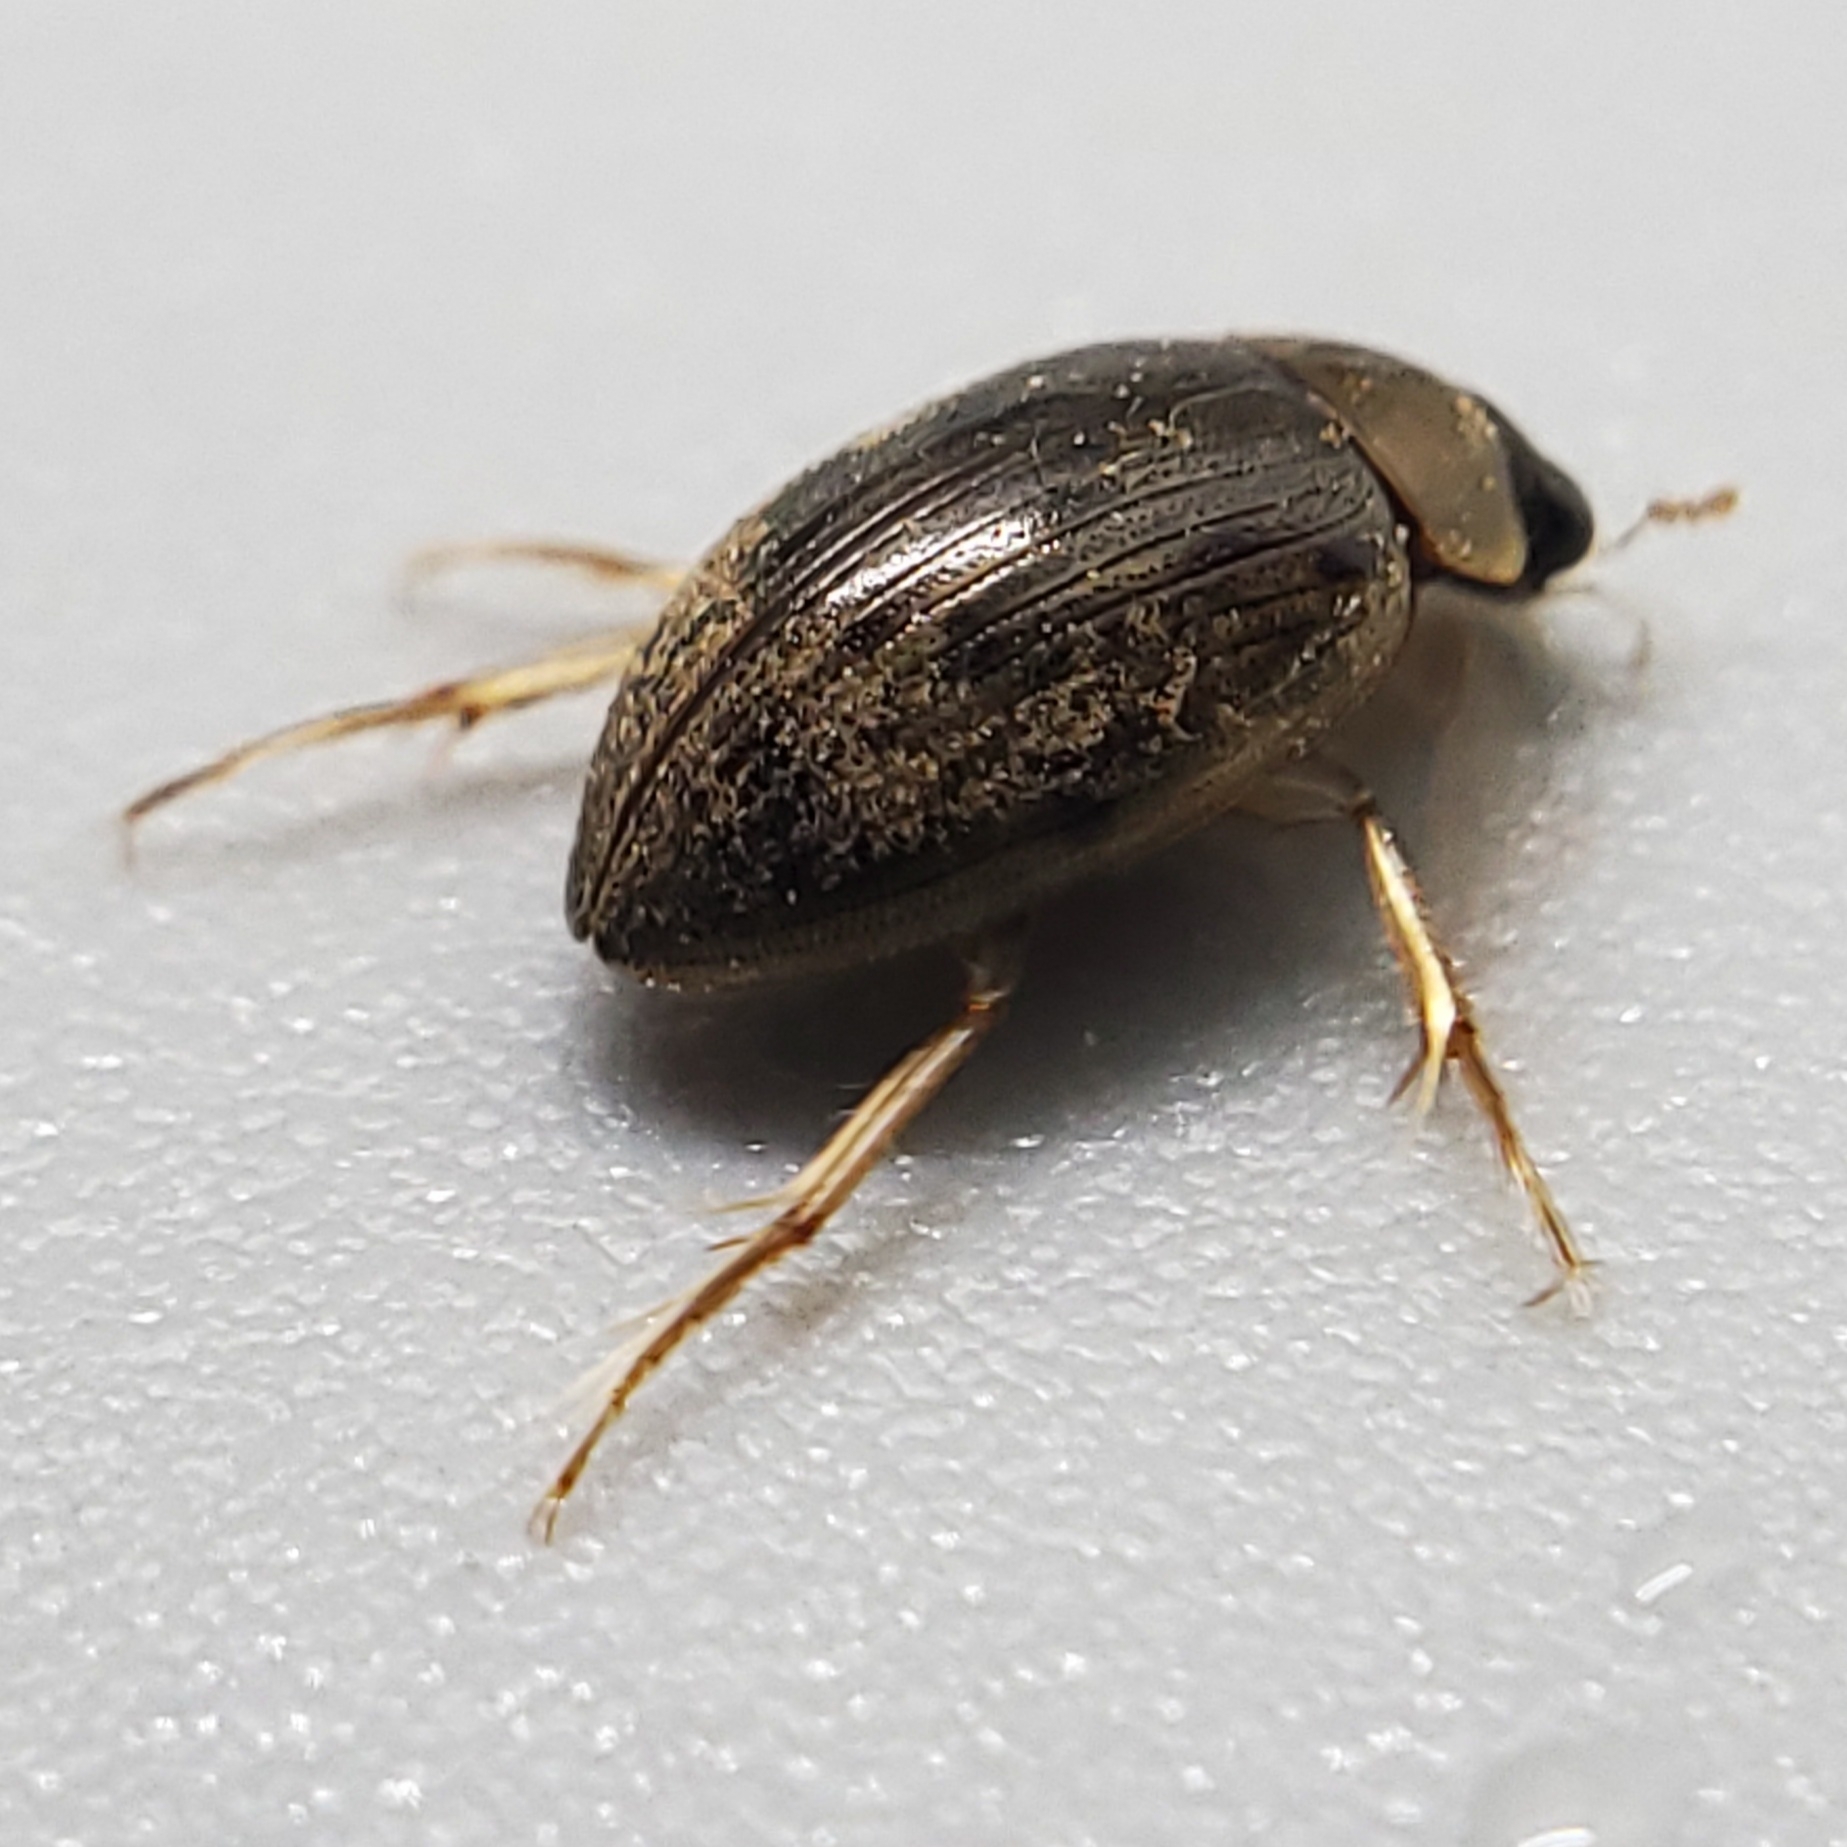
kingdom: Animalia
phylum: Arthropoda
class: Insecta
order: Coleoptera
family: Hydrophilidae
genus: Berosus
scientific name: Berosus
